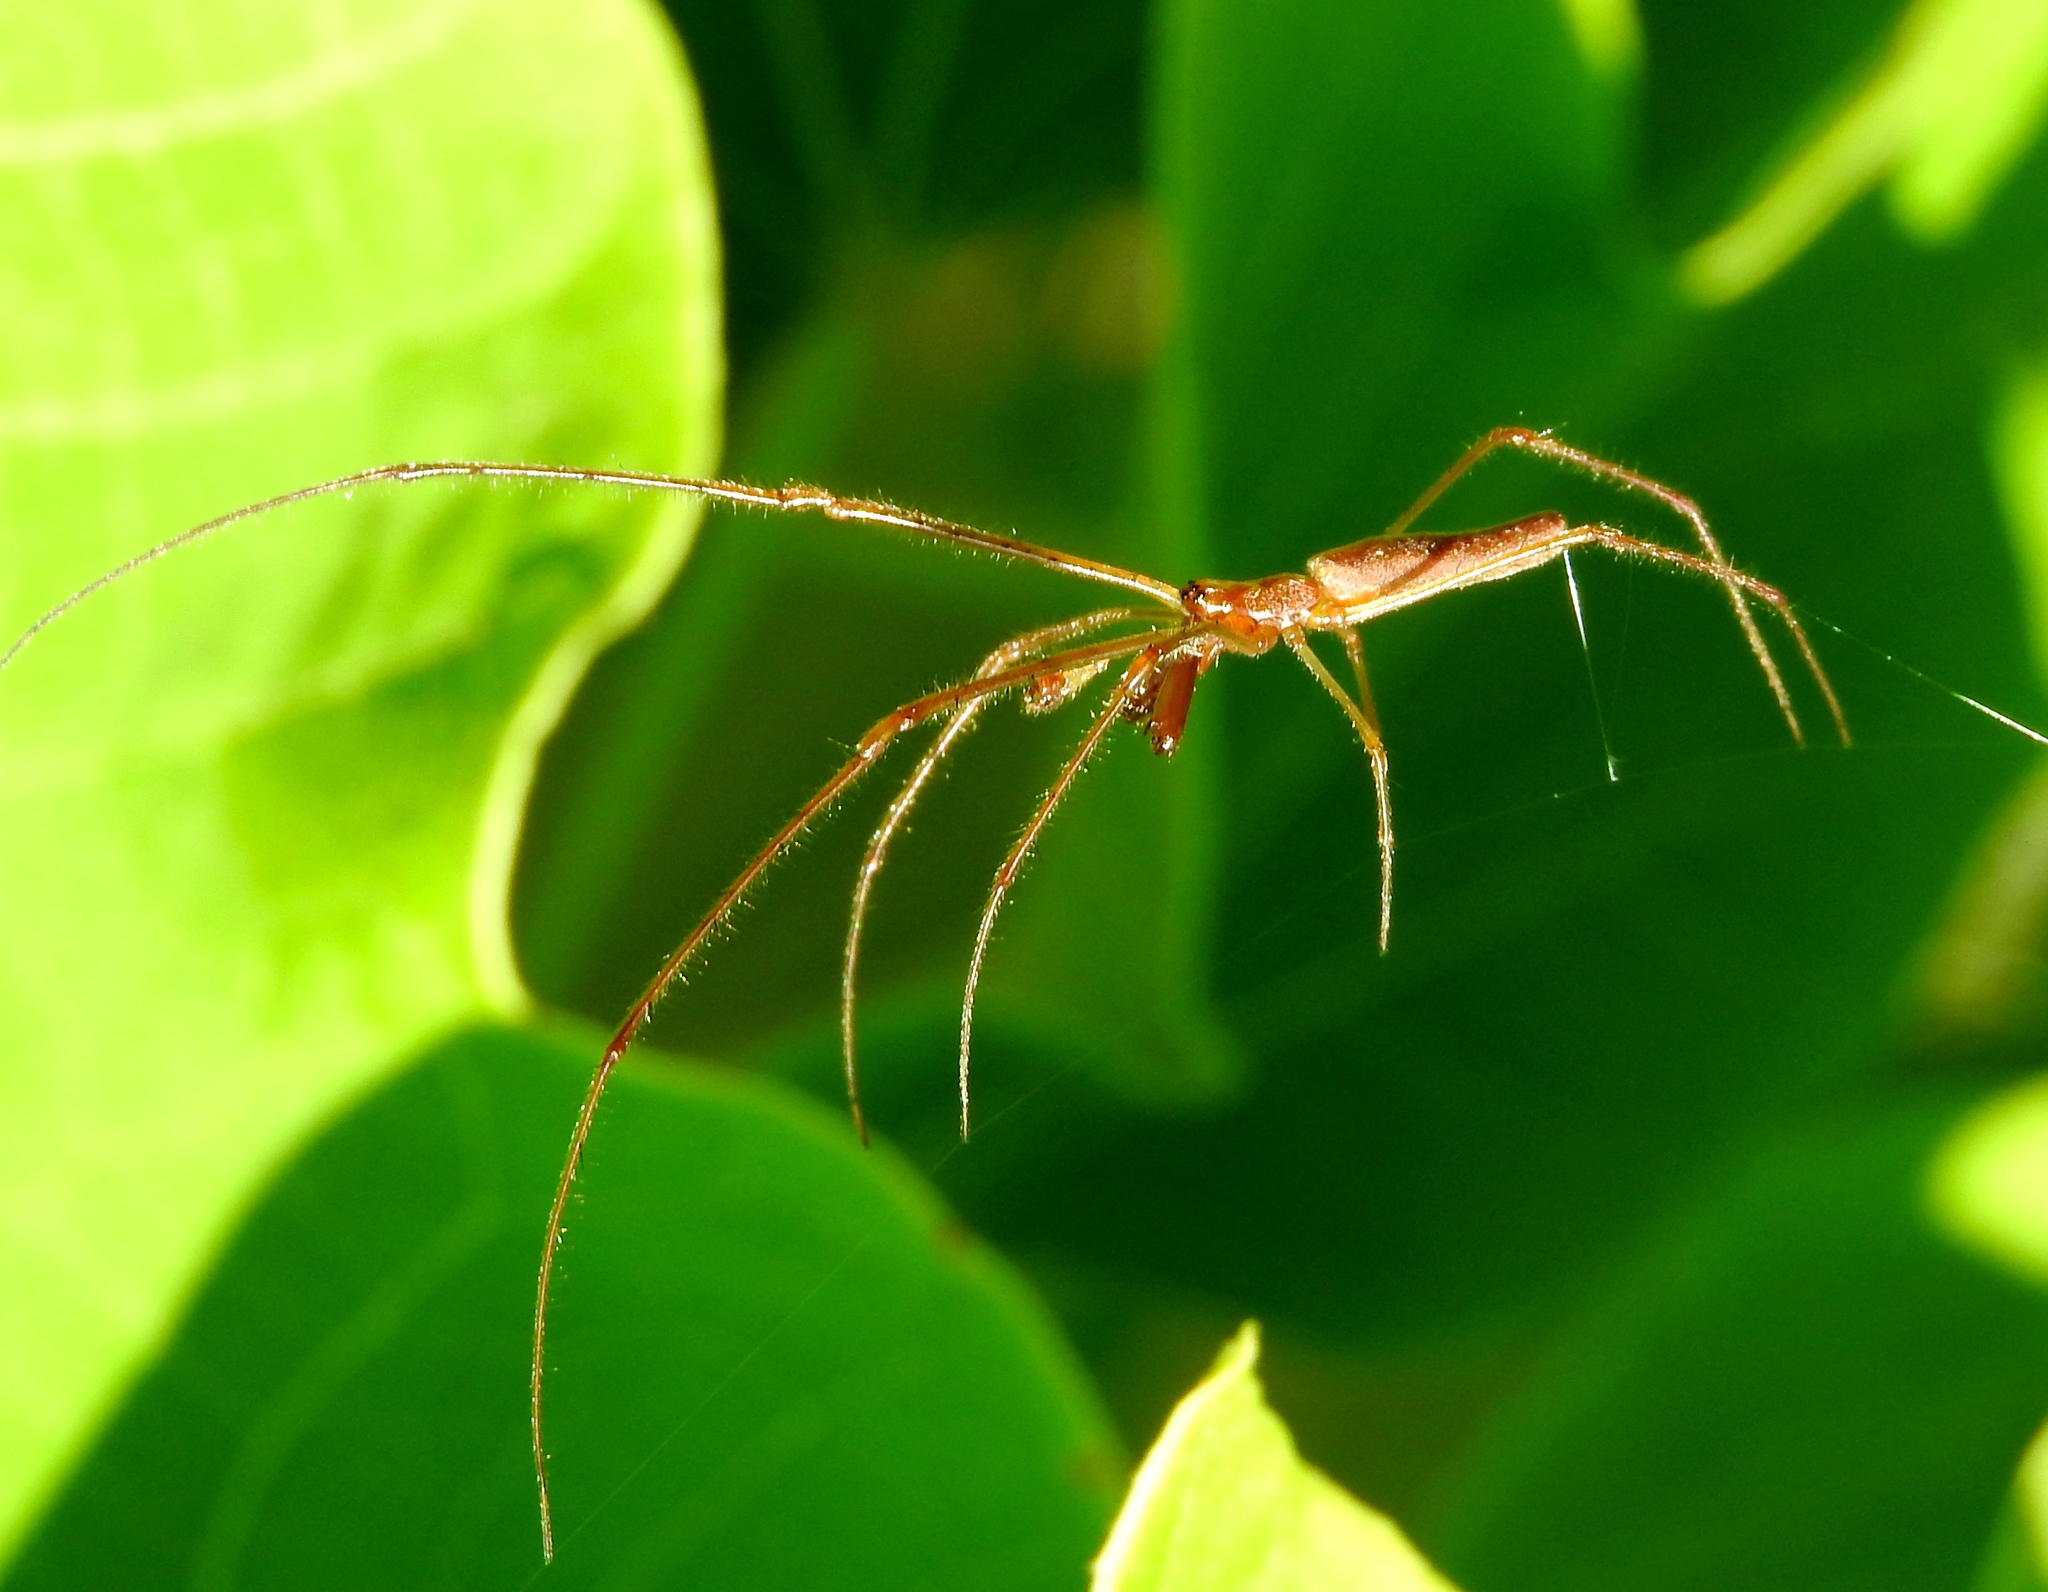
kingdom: Animalia
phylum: Arthropoda
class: Arachnida
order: Araneae
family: Tetragnathidae
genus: Tetragnatha
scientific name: Tetragnatha
